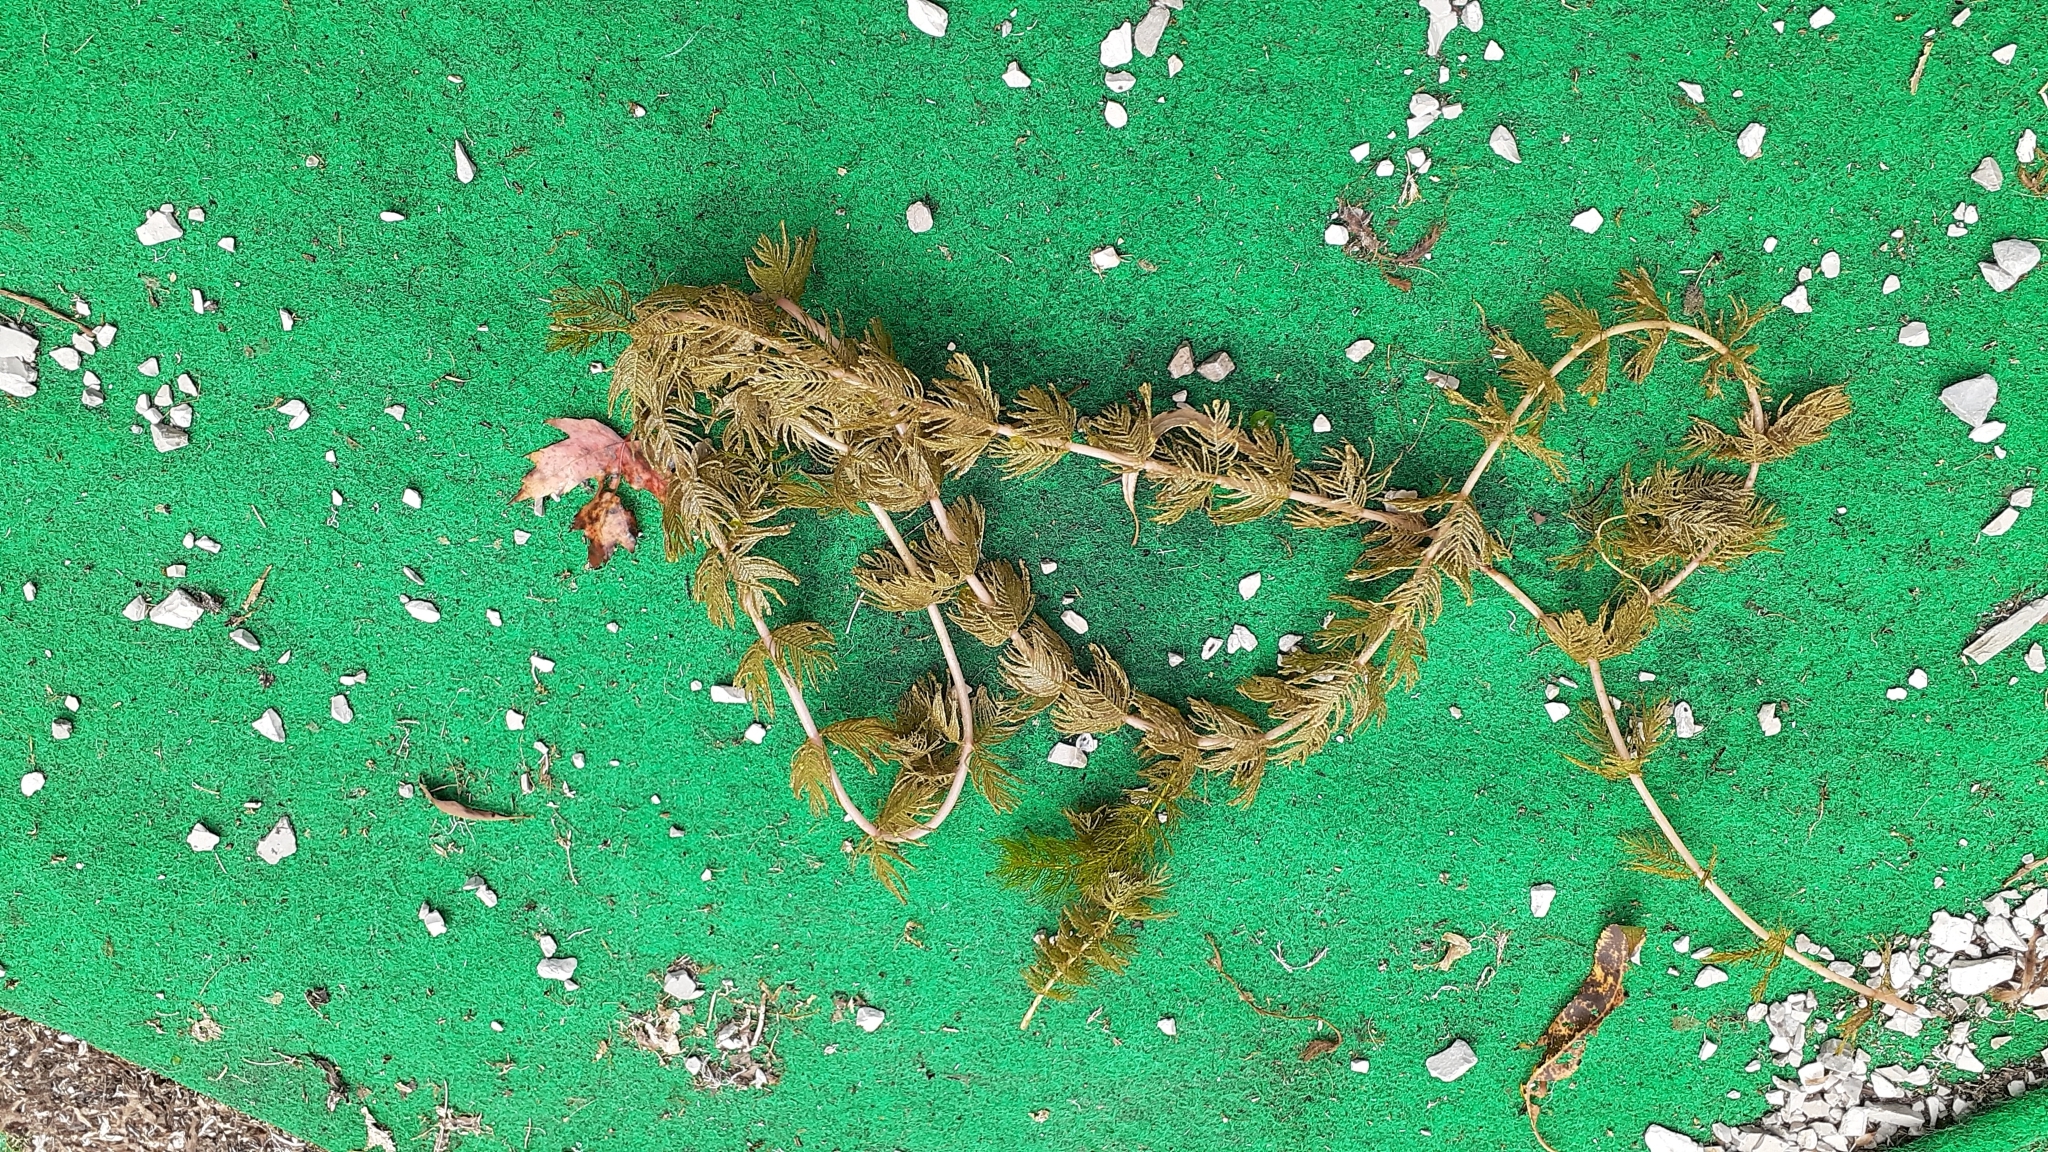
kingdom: Plantae
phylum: Tracheophyta
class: Magnoliopsida
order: Saxifragales
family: Haloragaceae
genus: Myriophyllum
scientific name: Myriophyllum spicatum
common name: Spiked water-milfoil
